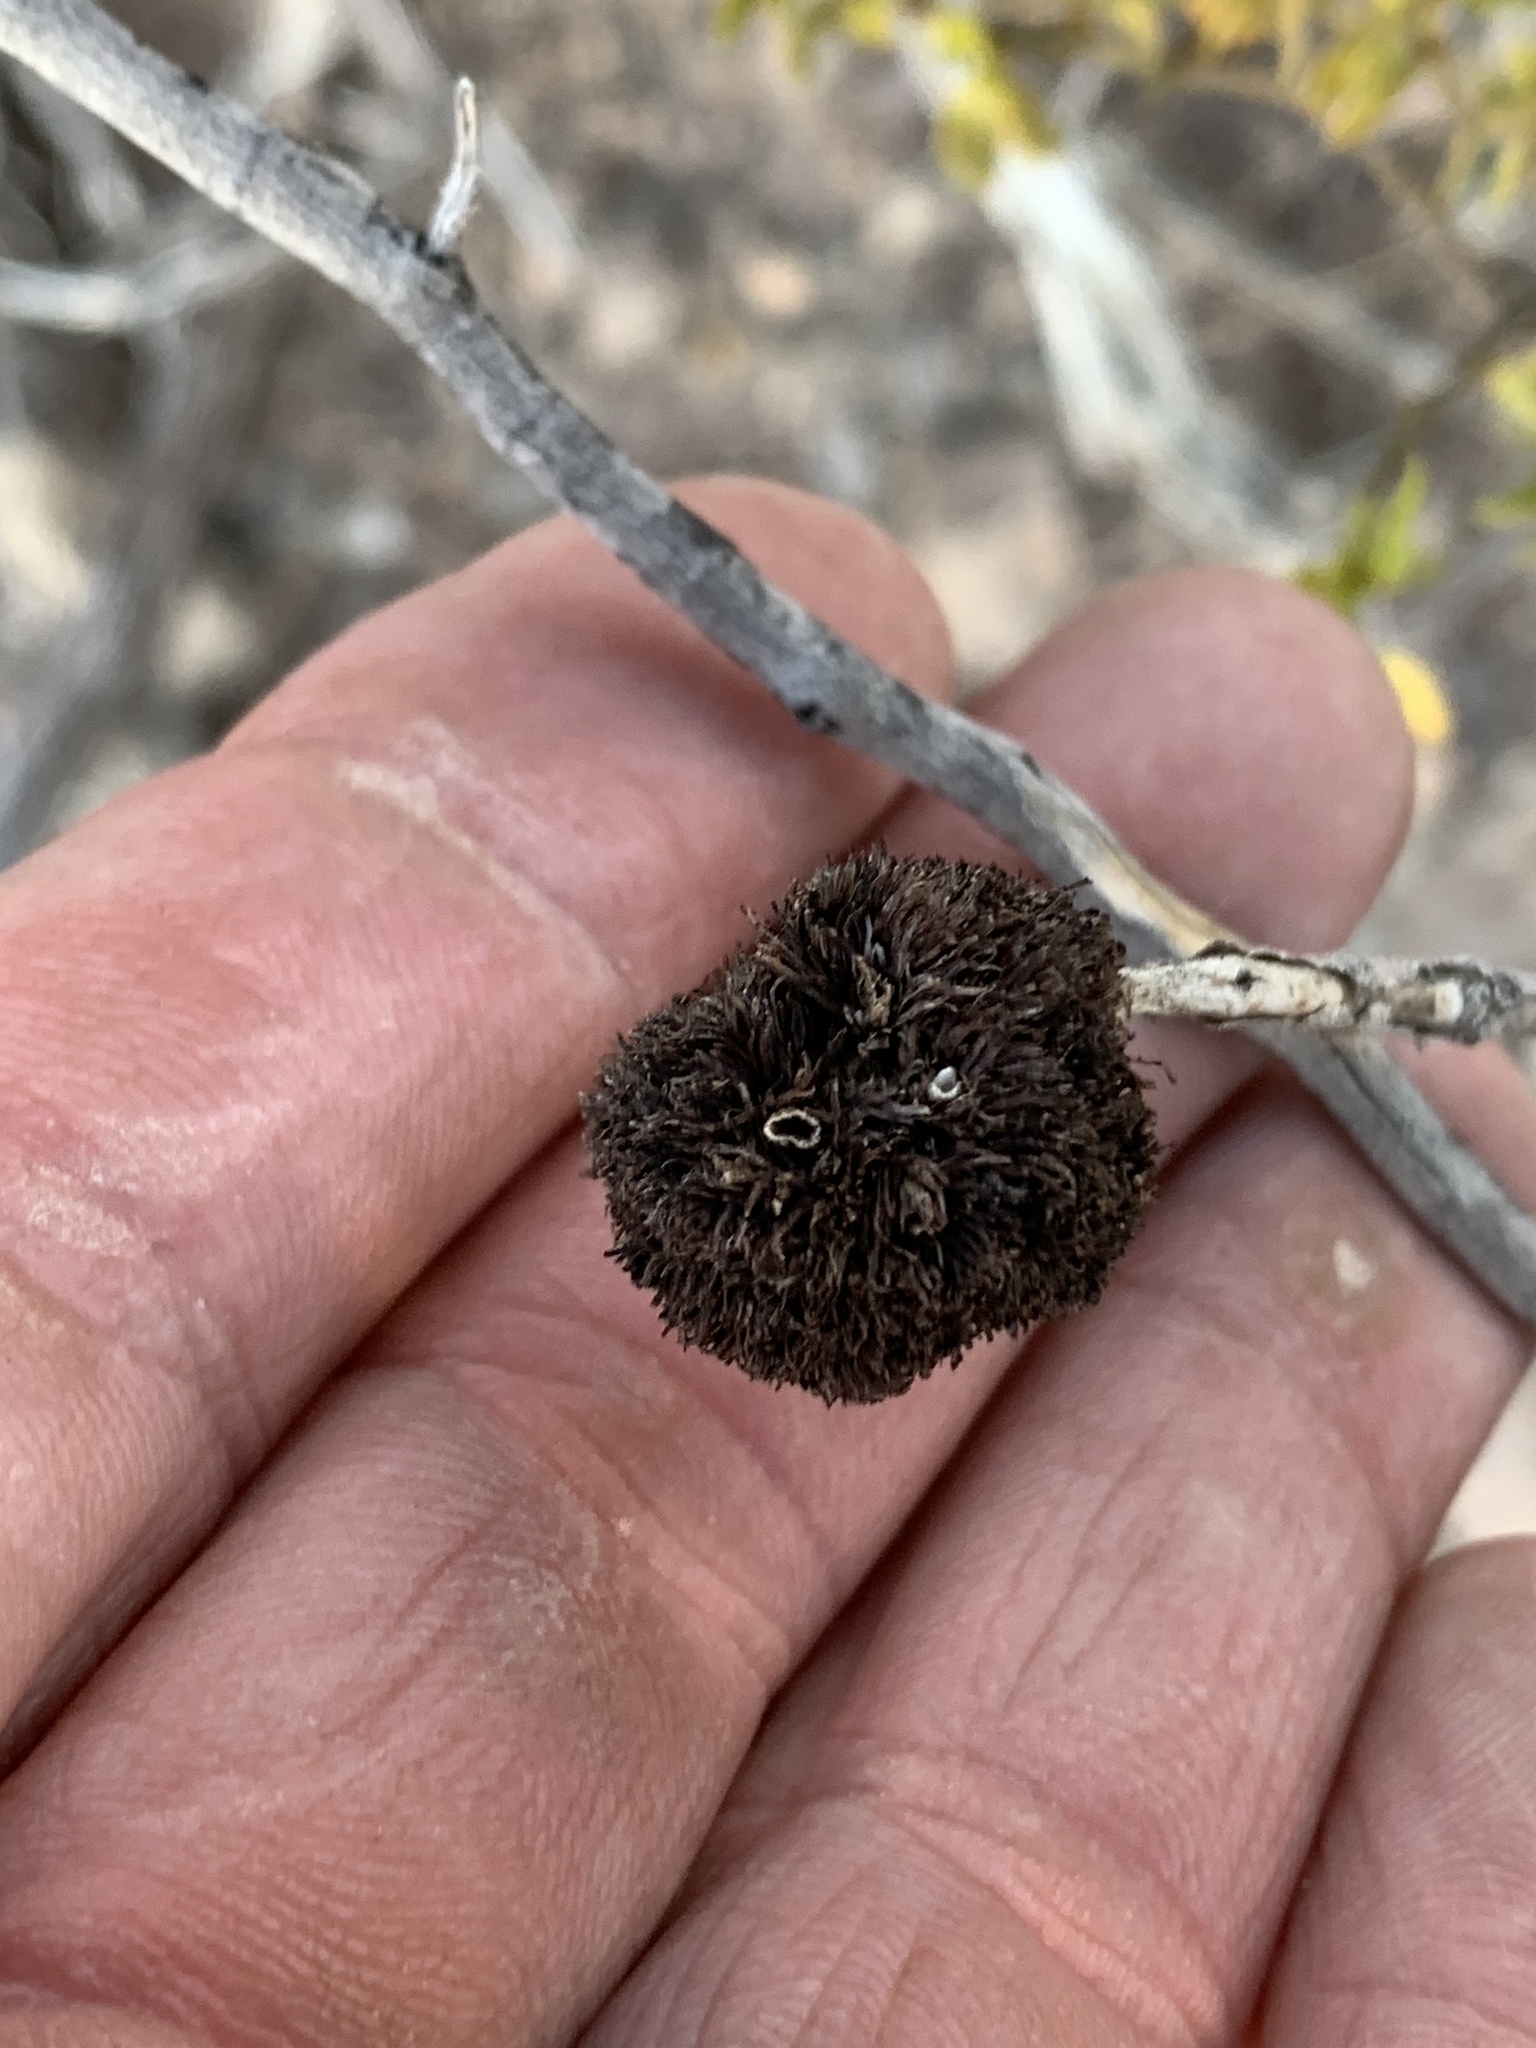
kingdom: Animalia
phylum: Arthropoda
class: Insecta
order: Diptera
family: Cecidomyiidae
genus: Asphondylia
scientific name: Asphondylia auripila
